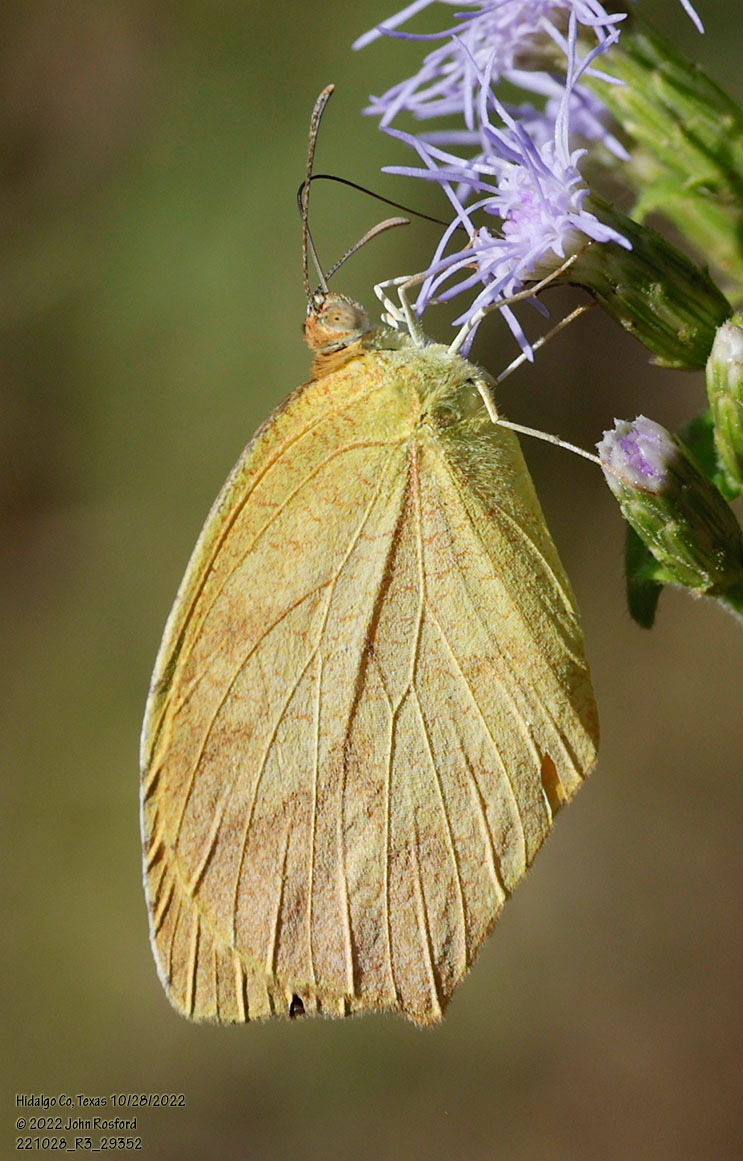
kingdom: Animalia
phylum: Arthropoda
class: Insecta
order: Lepidoptera
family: Pieridae
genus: Pyrisitia
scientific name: Pyrisitia proterpia
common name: Tailed orange
